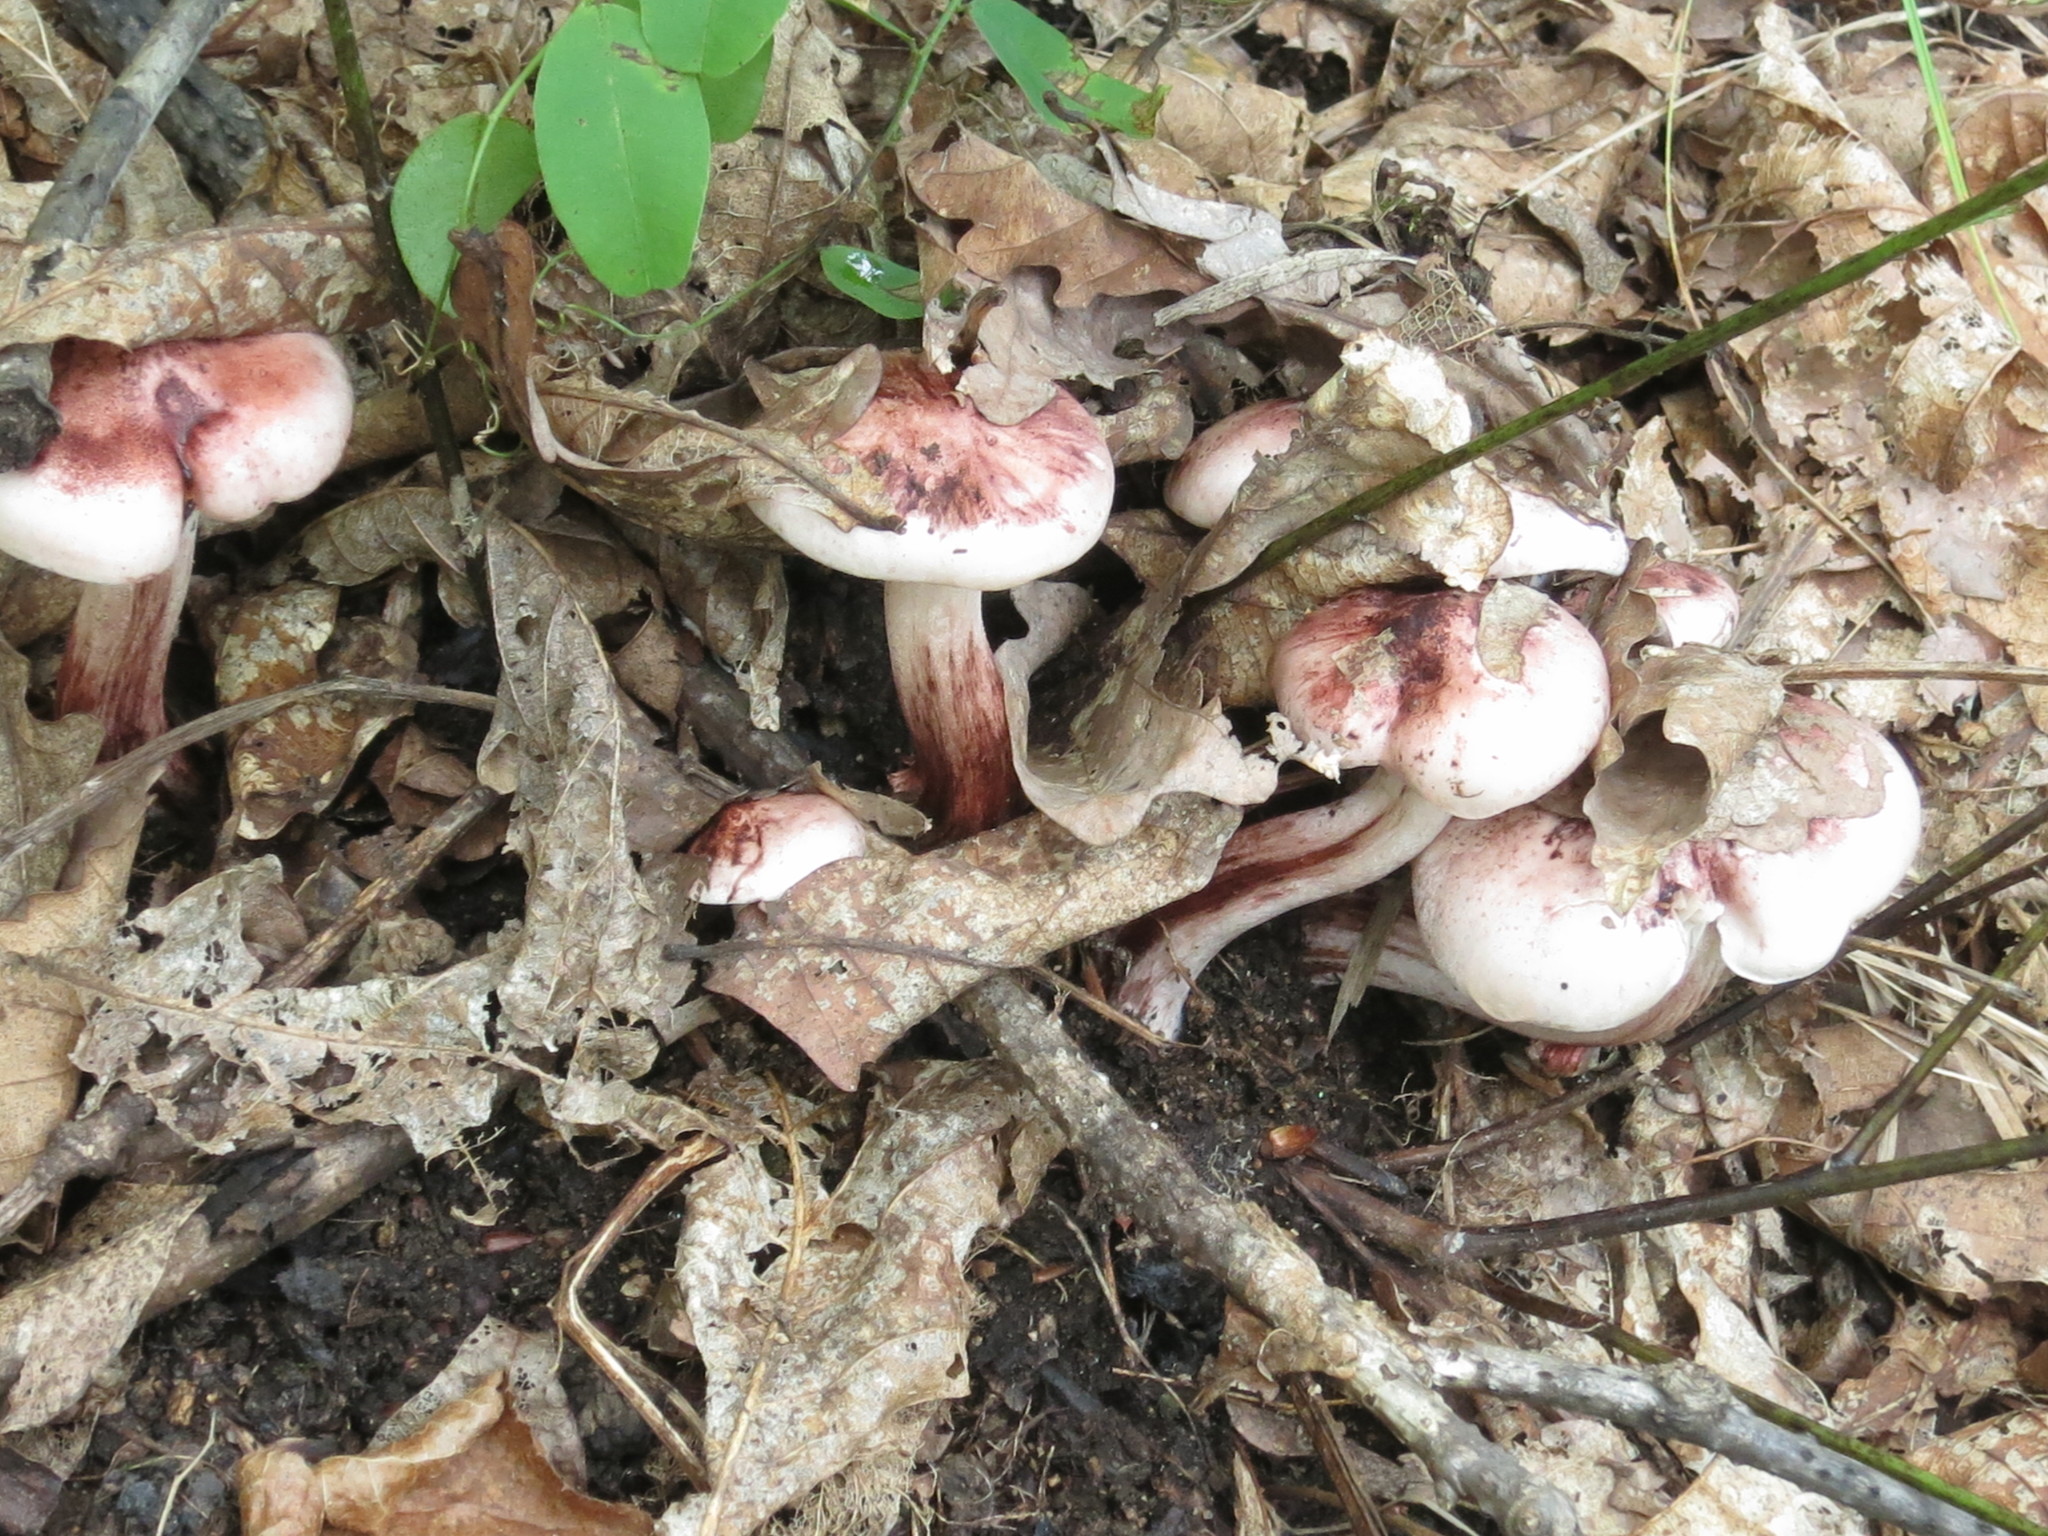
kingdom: Fungi
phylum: Basidiomycota
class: Agaricomycetes
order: Agaricales
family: Hygrophoraceae
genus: Hygrophorus
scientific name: Hygrophorus russula
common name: Pinkmottle woodwax
